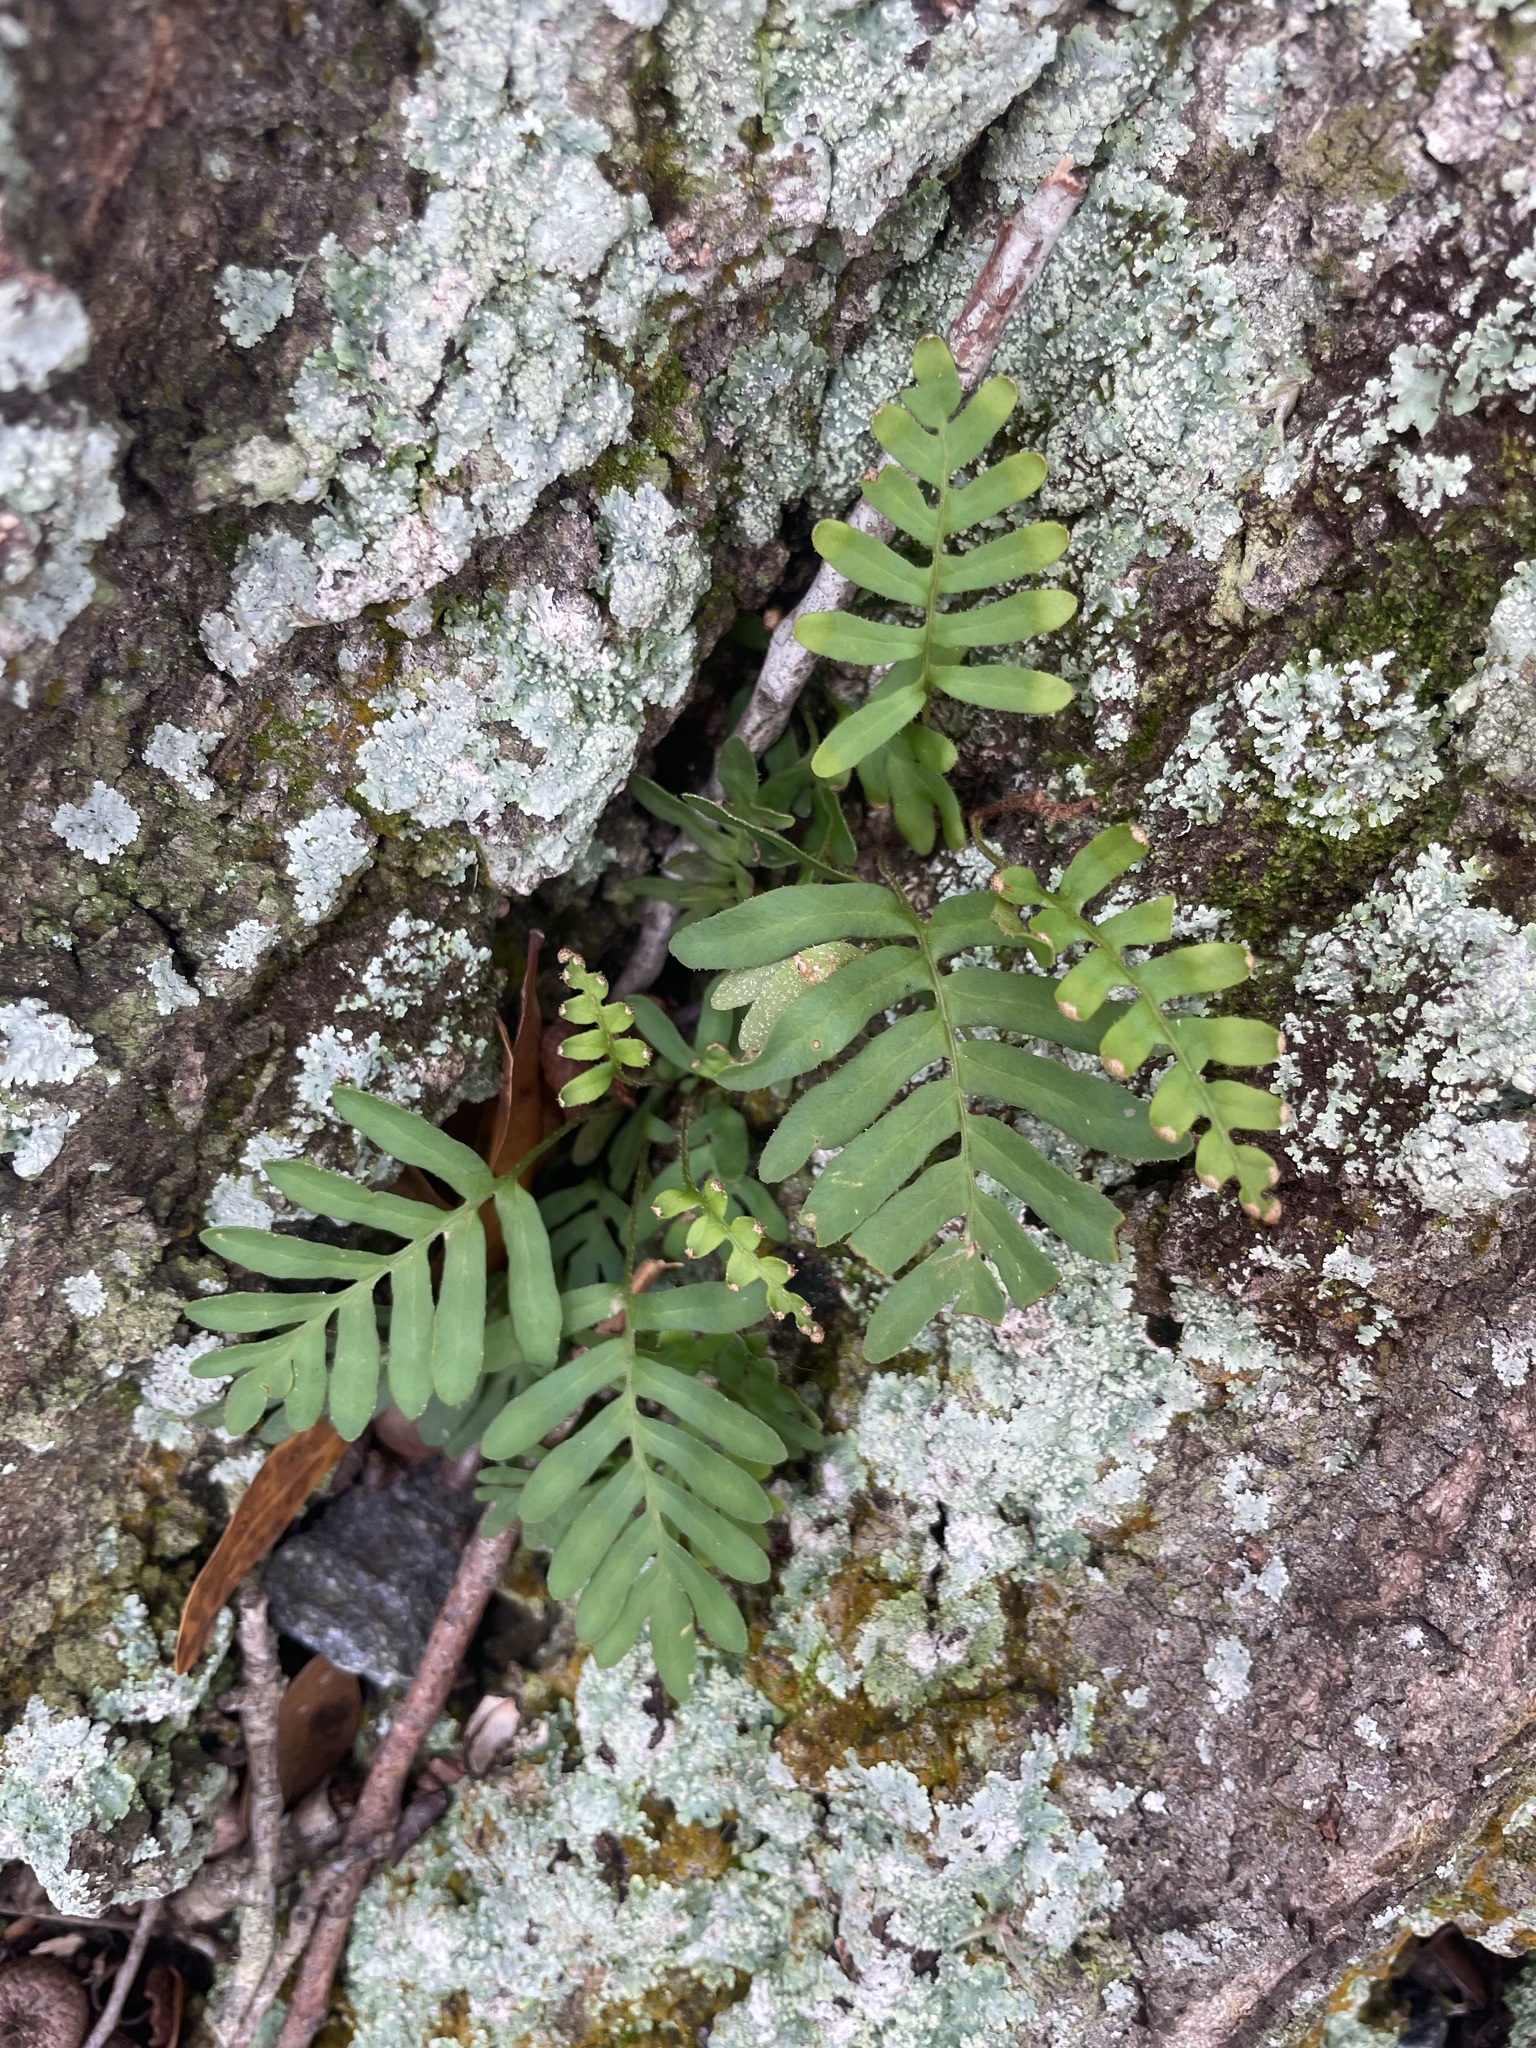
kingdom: Plantae
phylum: Tracheophyta
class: Polypodiopsida
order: Polypodiales
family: Polypodiaceae
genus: Pleopeltis
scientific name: Pleopeltis michauxiana
